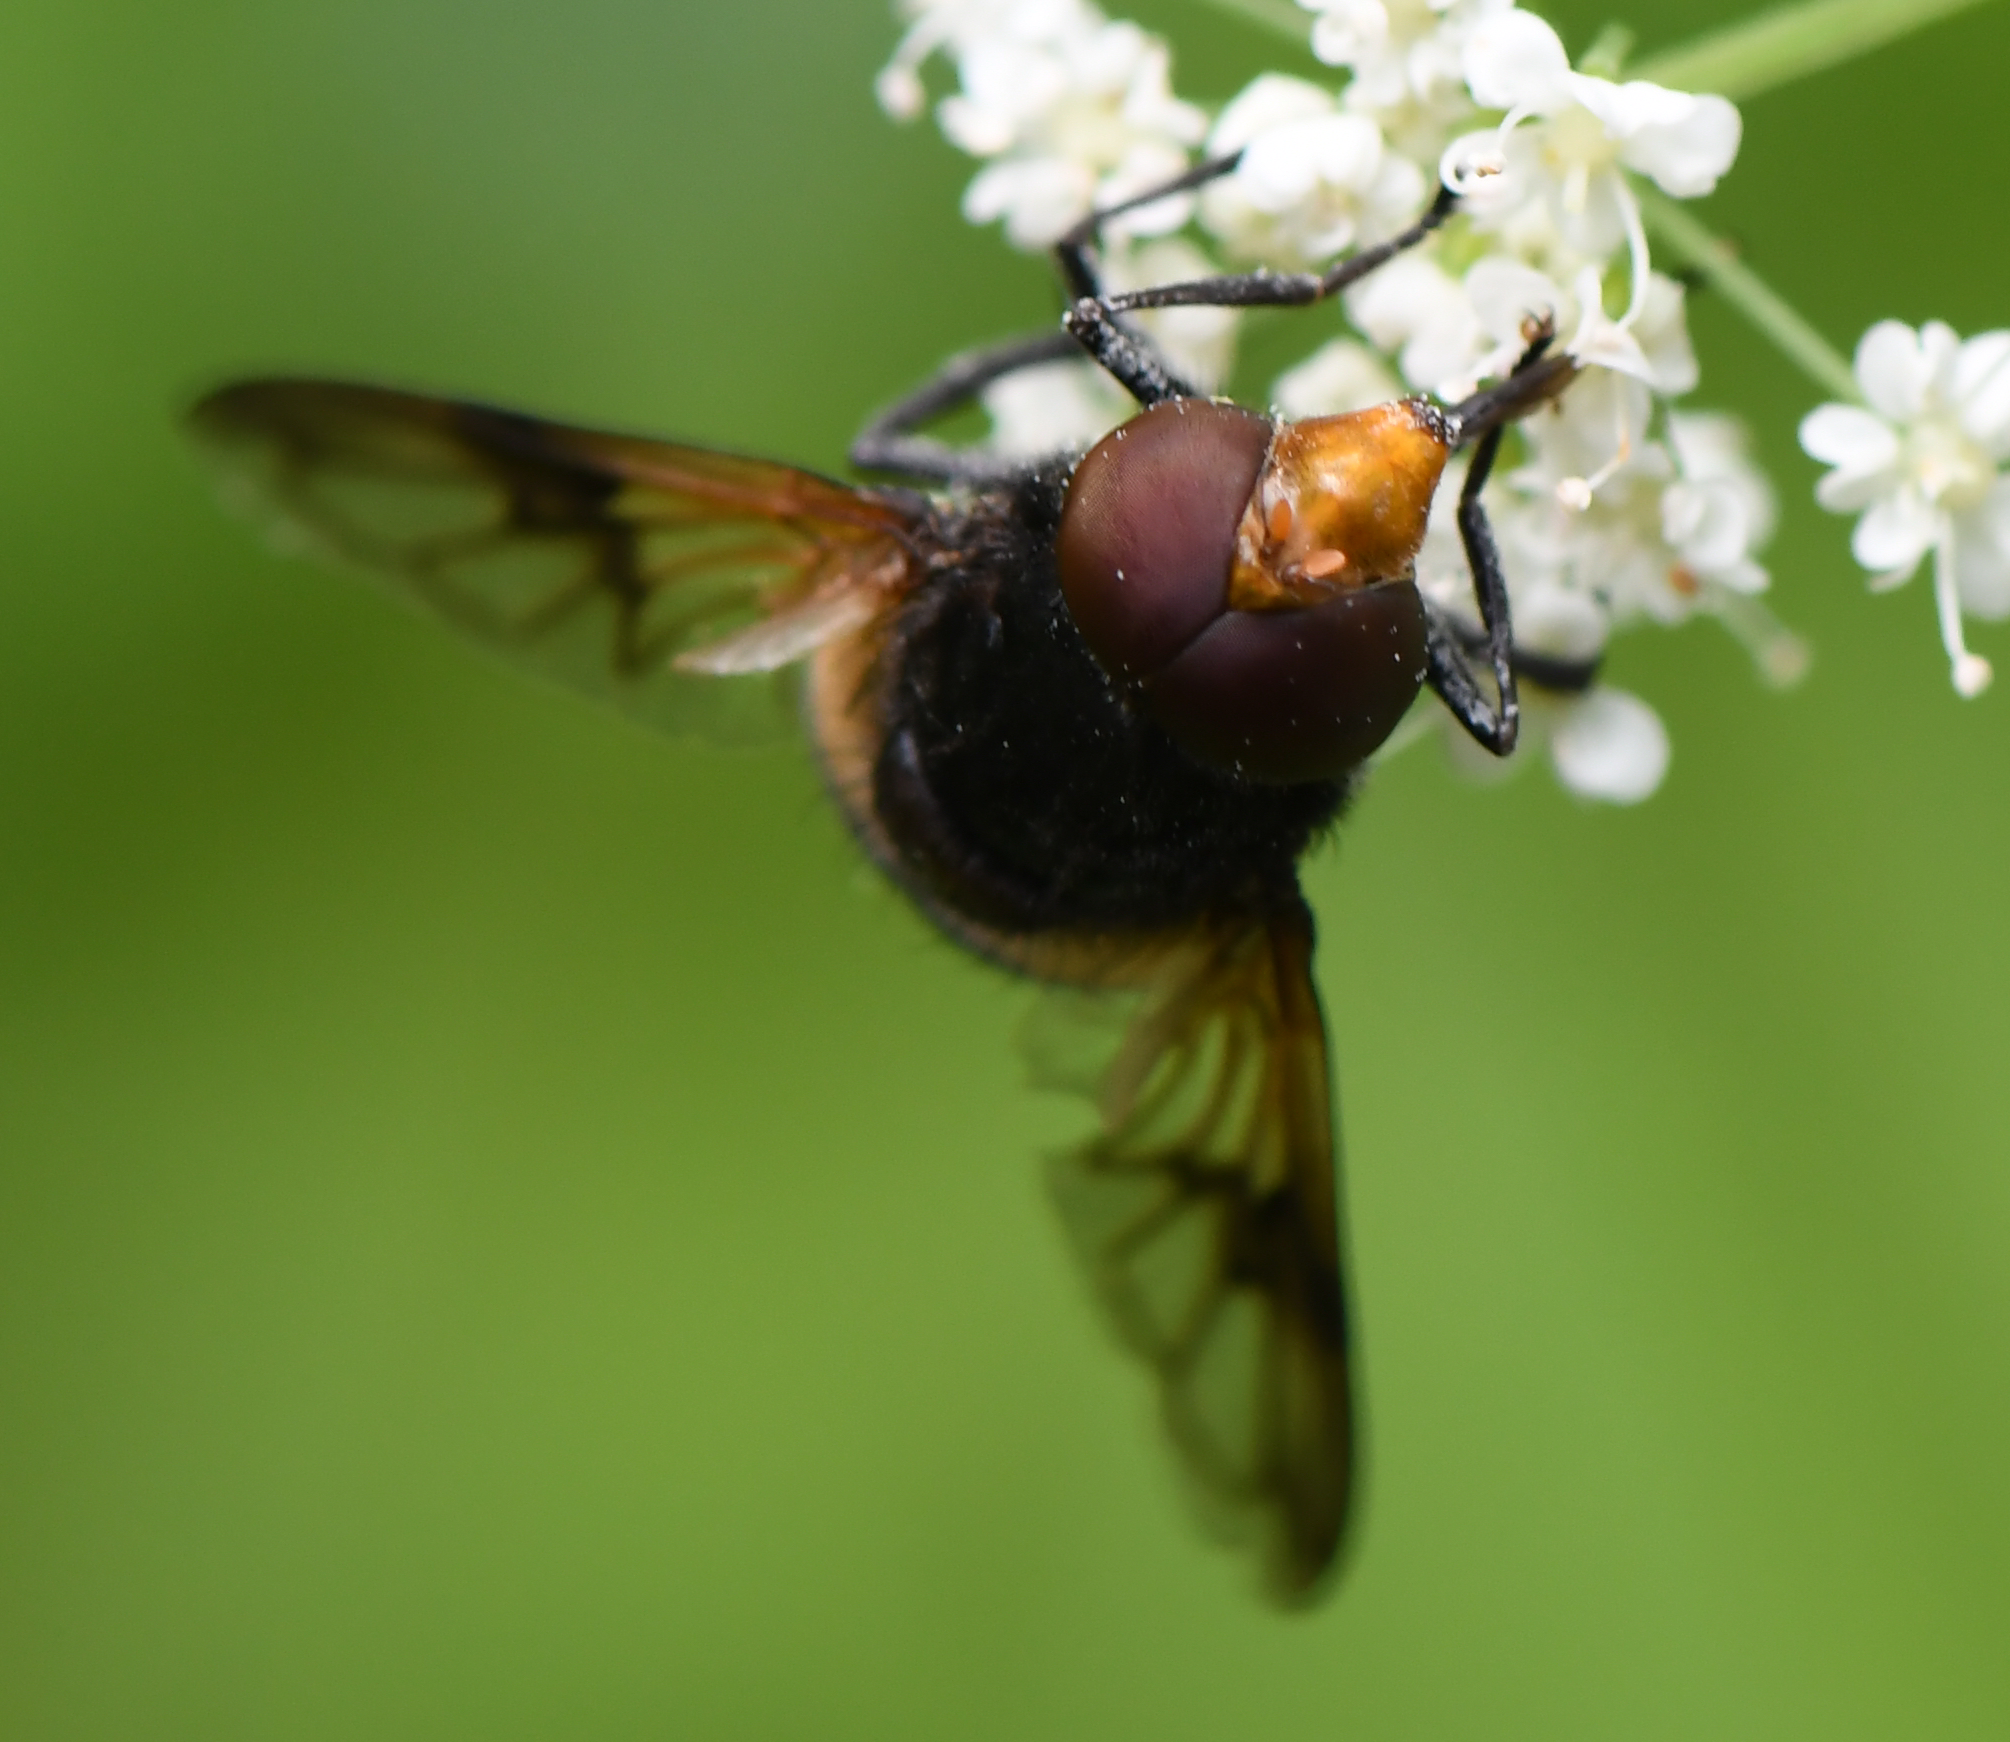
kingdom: Animalia
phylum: Arthropoda
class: Insecta
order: Diptera
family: Syrphidae
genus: Volucella
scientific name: Volucella pellucens
